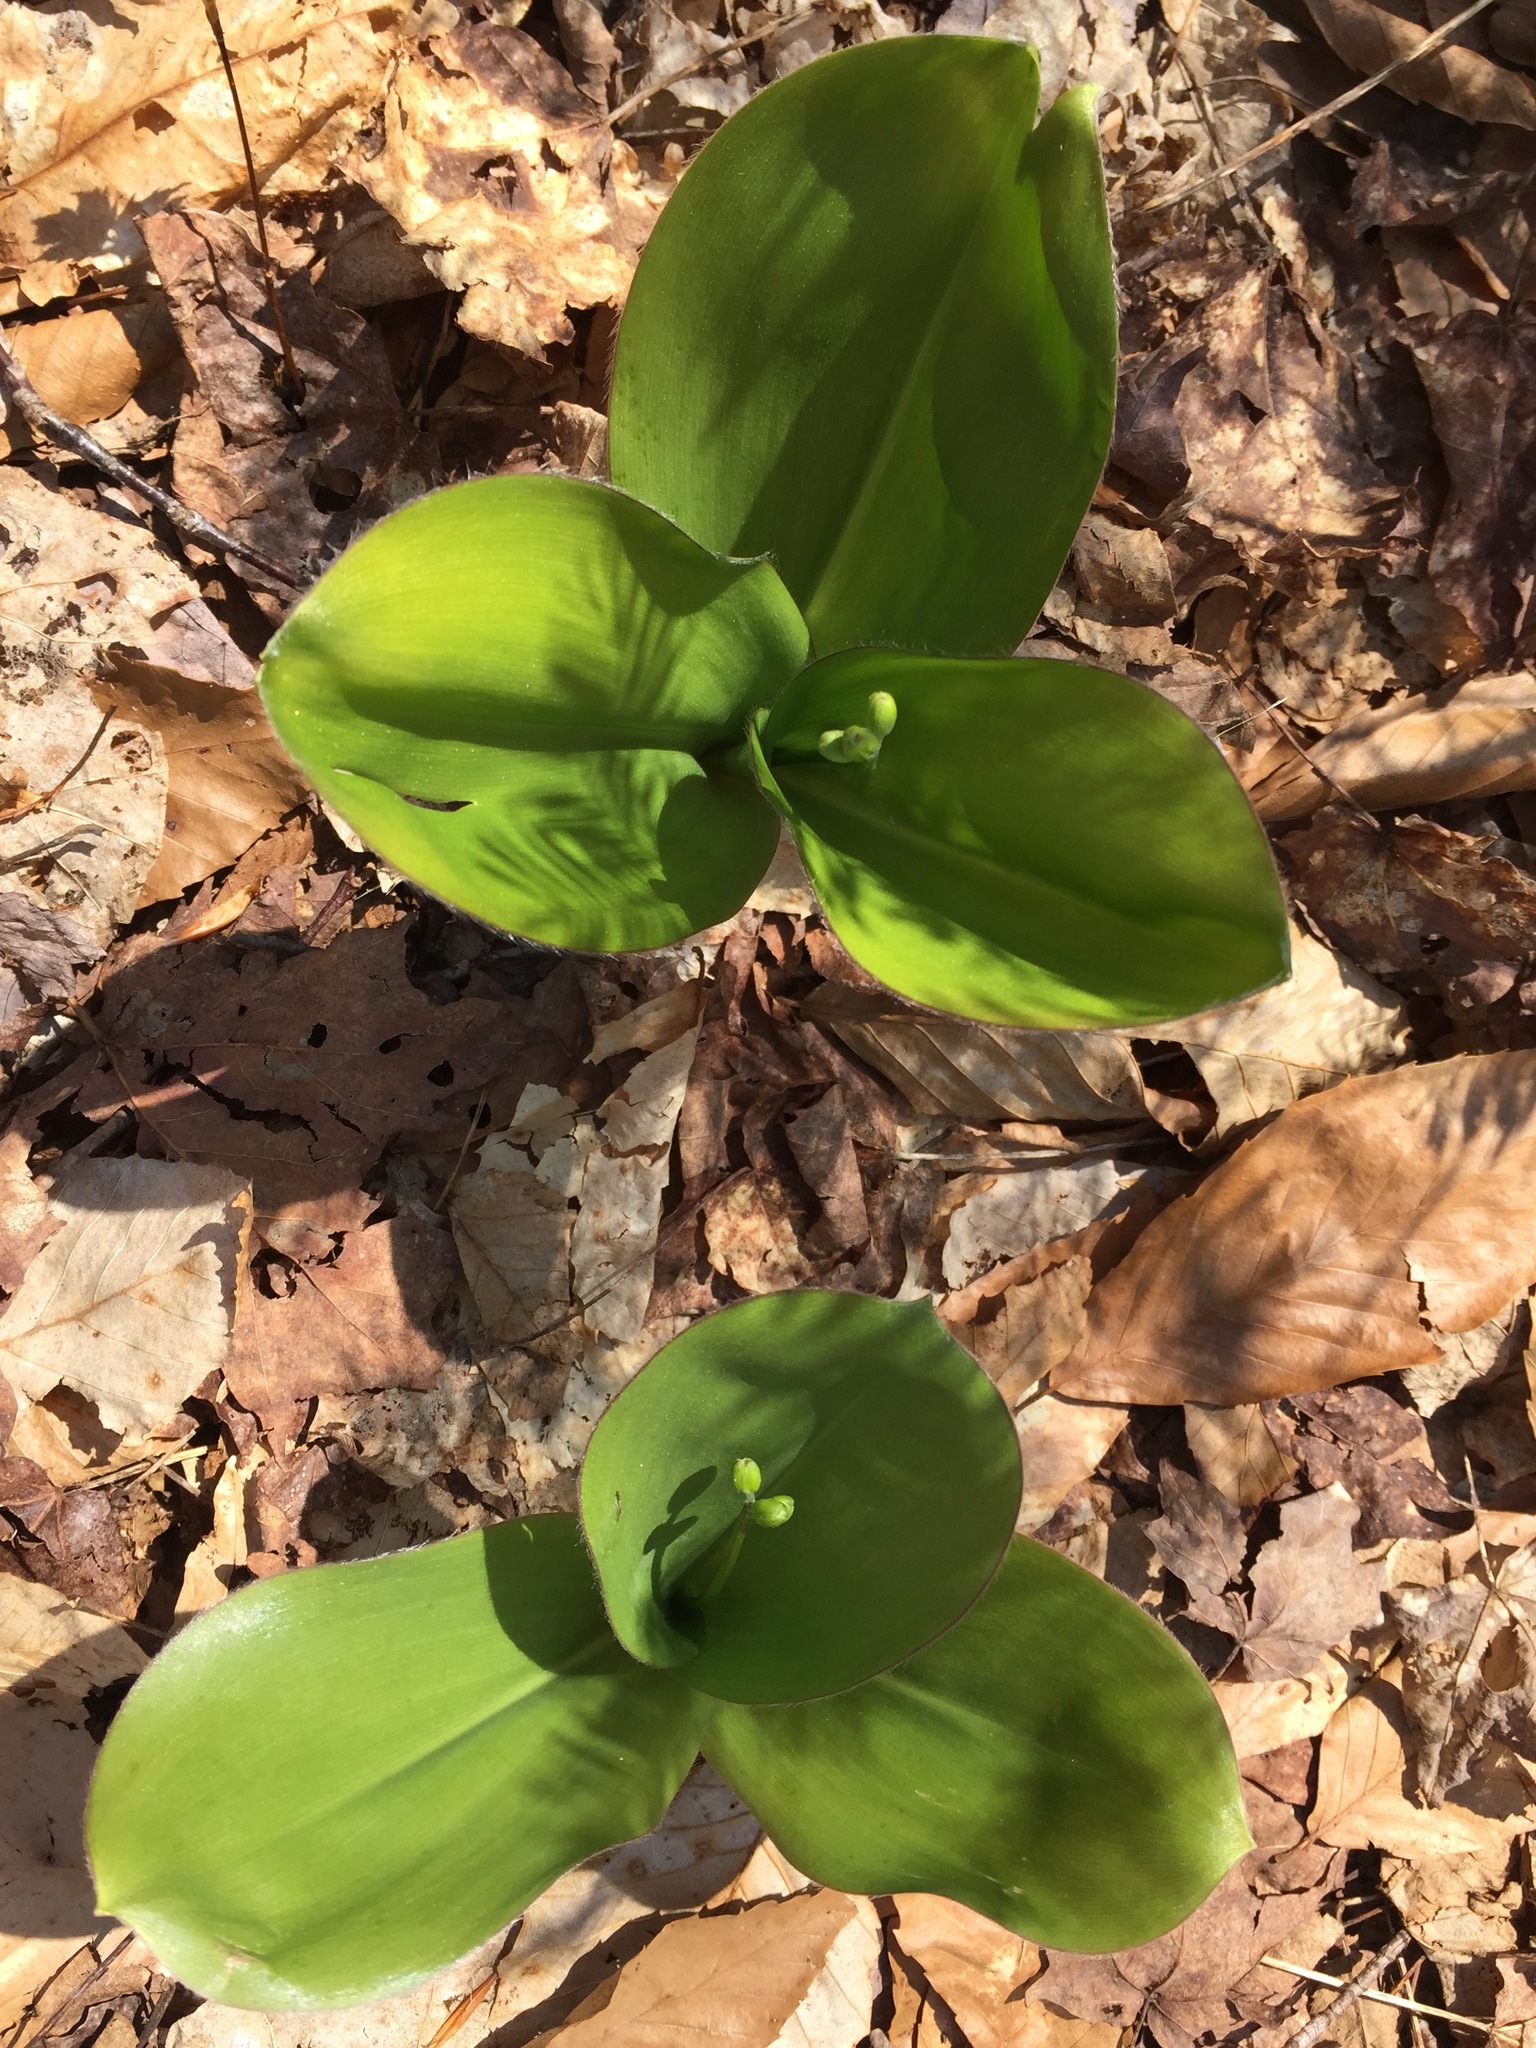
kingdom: Plantae
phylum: Tracheophyta
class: Liliopsida
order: Liliales
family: Liliaceae
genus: Clintonia
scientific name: Clintonia borealis
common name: Yellow clintonia
